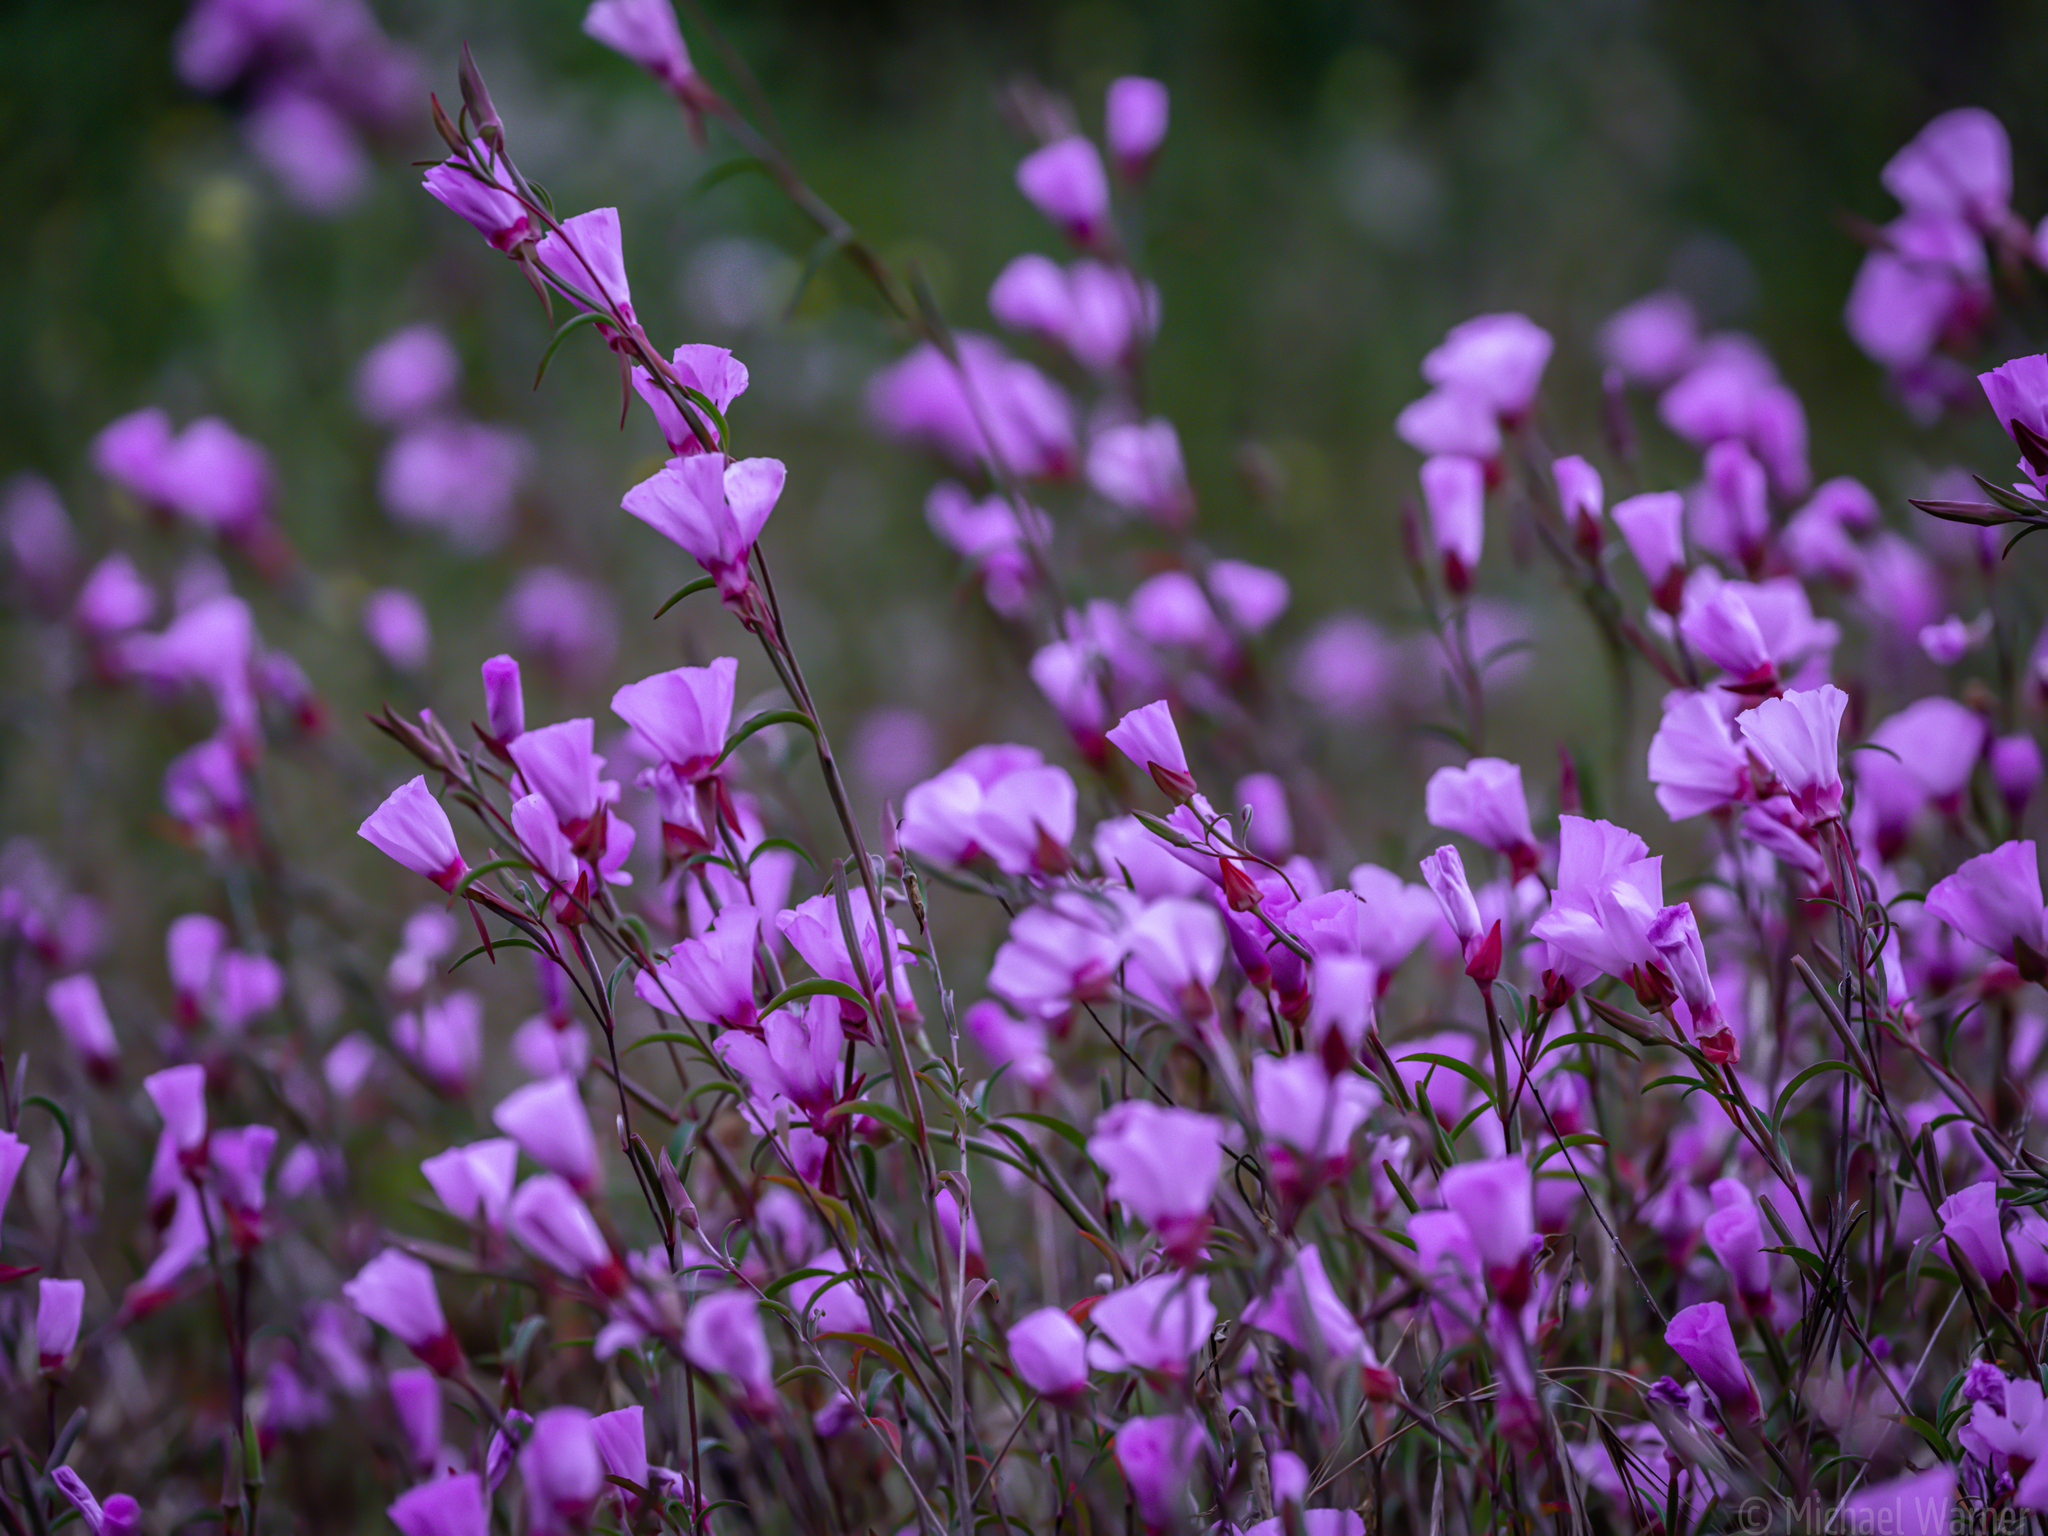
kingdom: Plantae
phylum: Tracheophyta
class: Magnoliopsida
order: Myrtales
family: Onagraceae
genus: Clarkia
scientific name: Clarkia rubicunda
